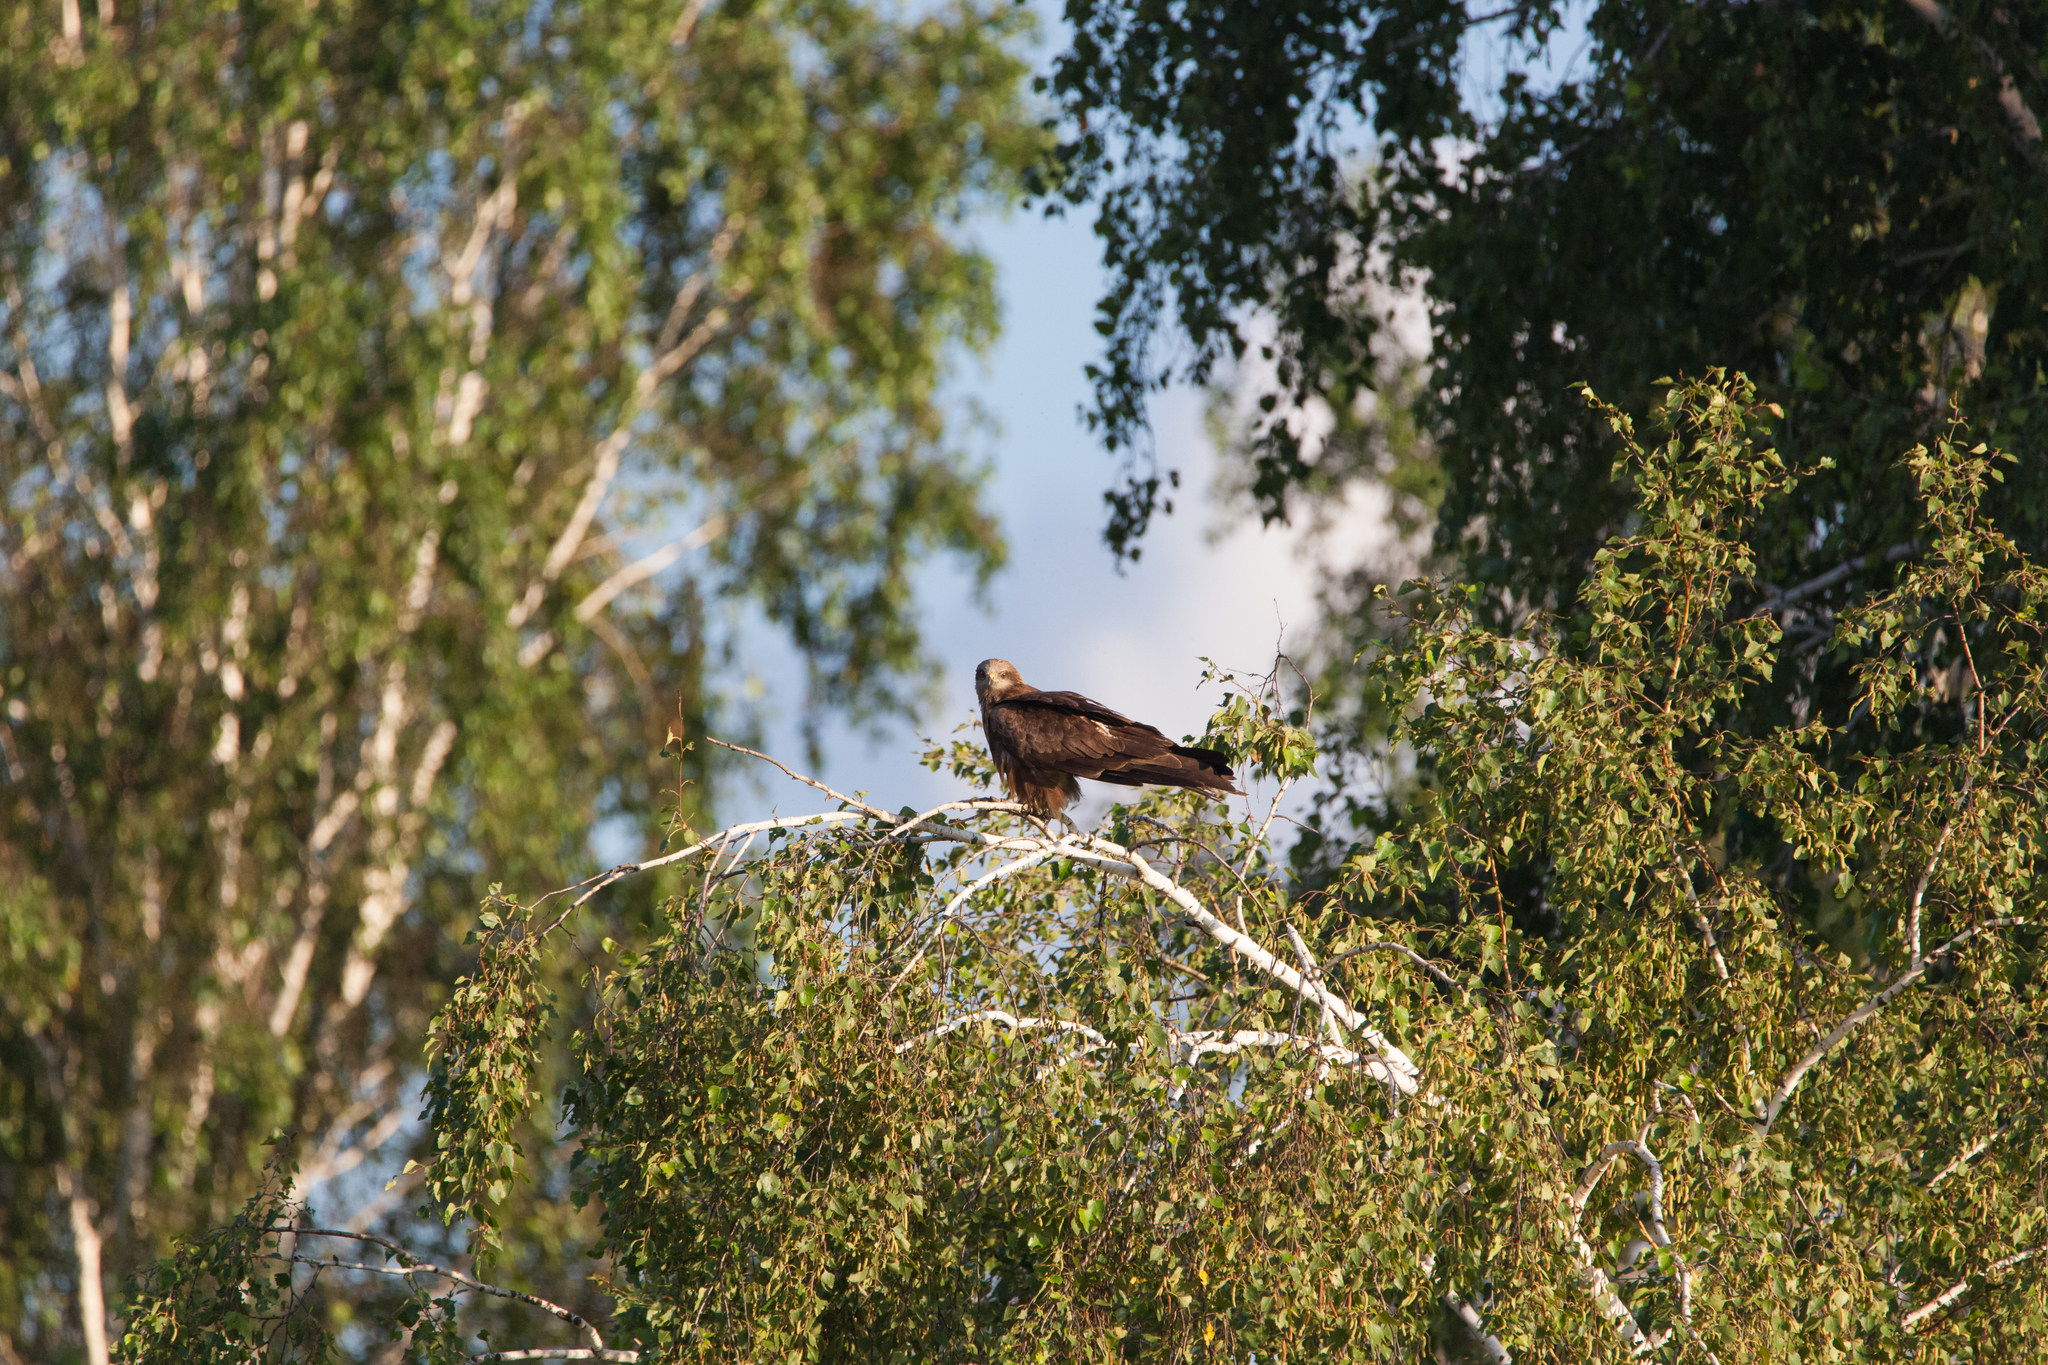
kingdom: Animalia
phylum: Chordata
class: Aves
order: Accipitriformes
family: Accipitridae
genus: Milvus
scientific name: Milvus migrans
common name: Black kite
